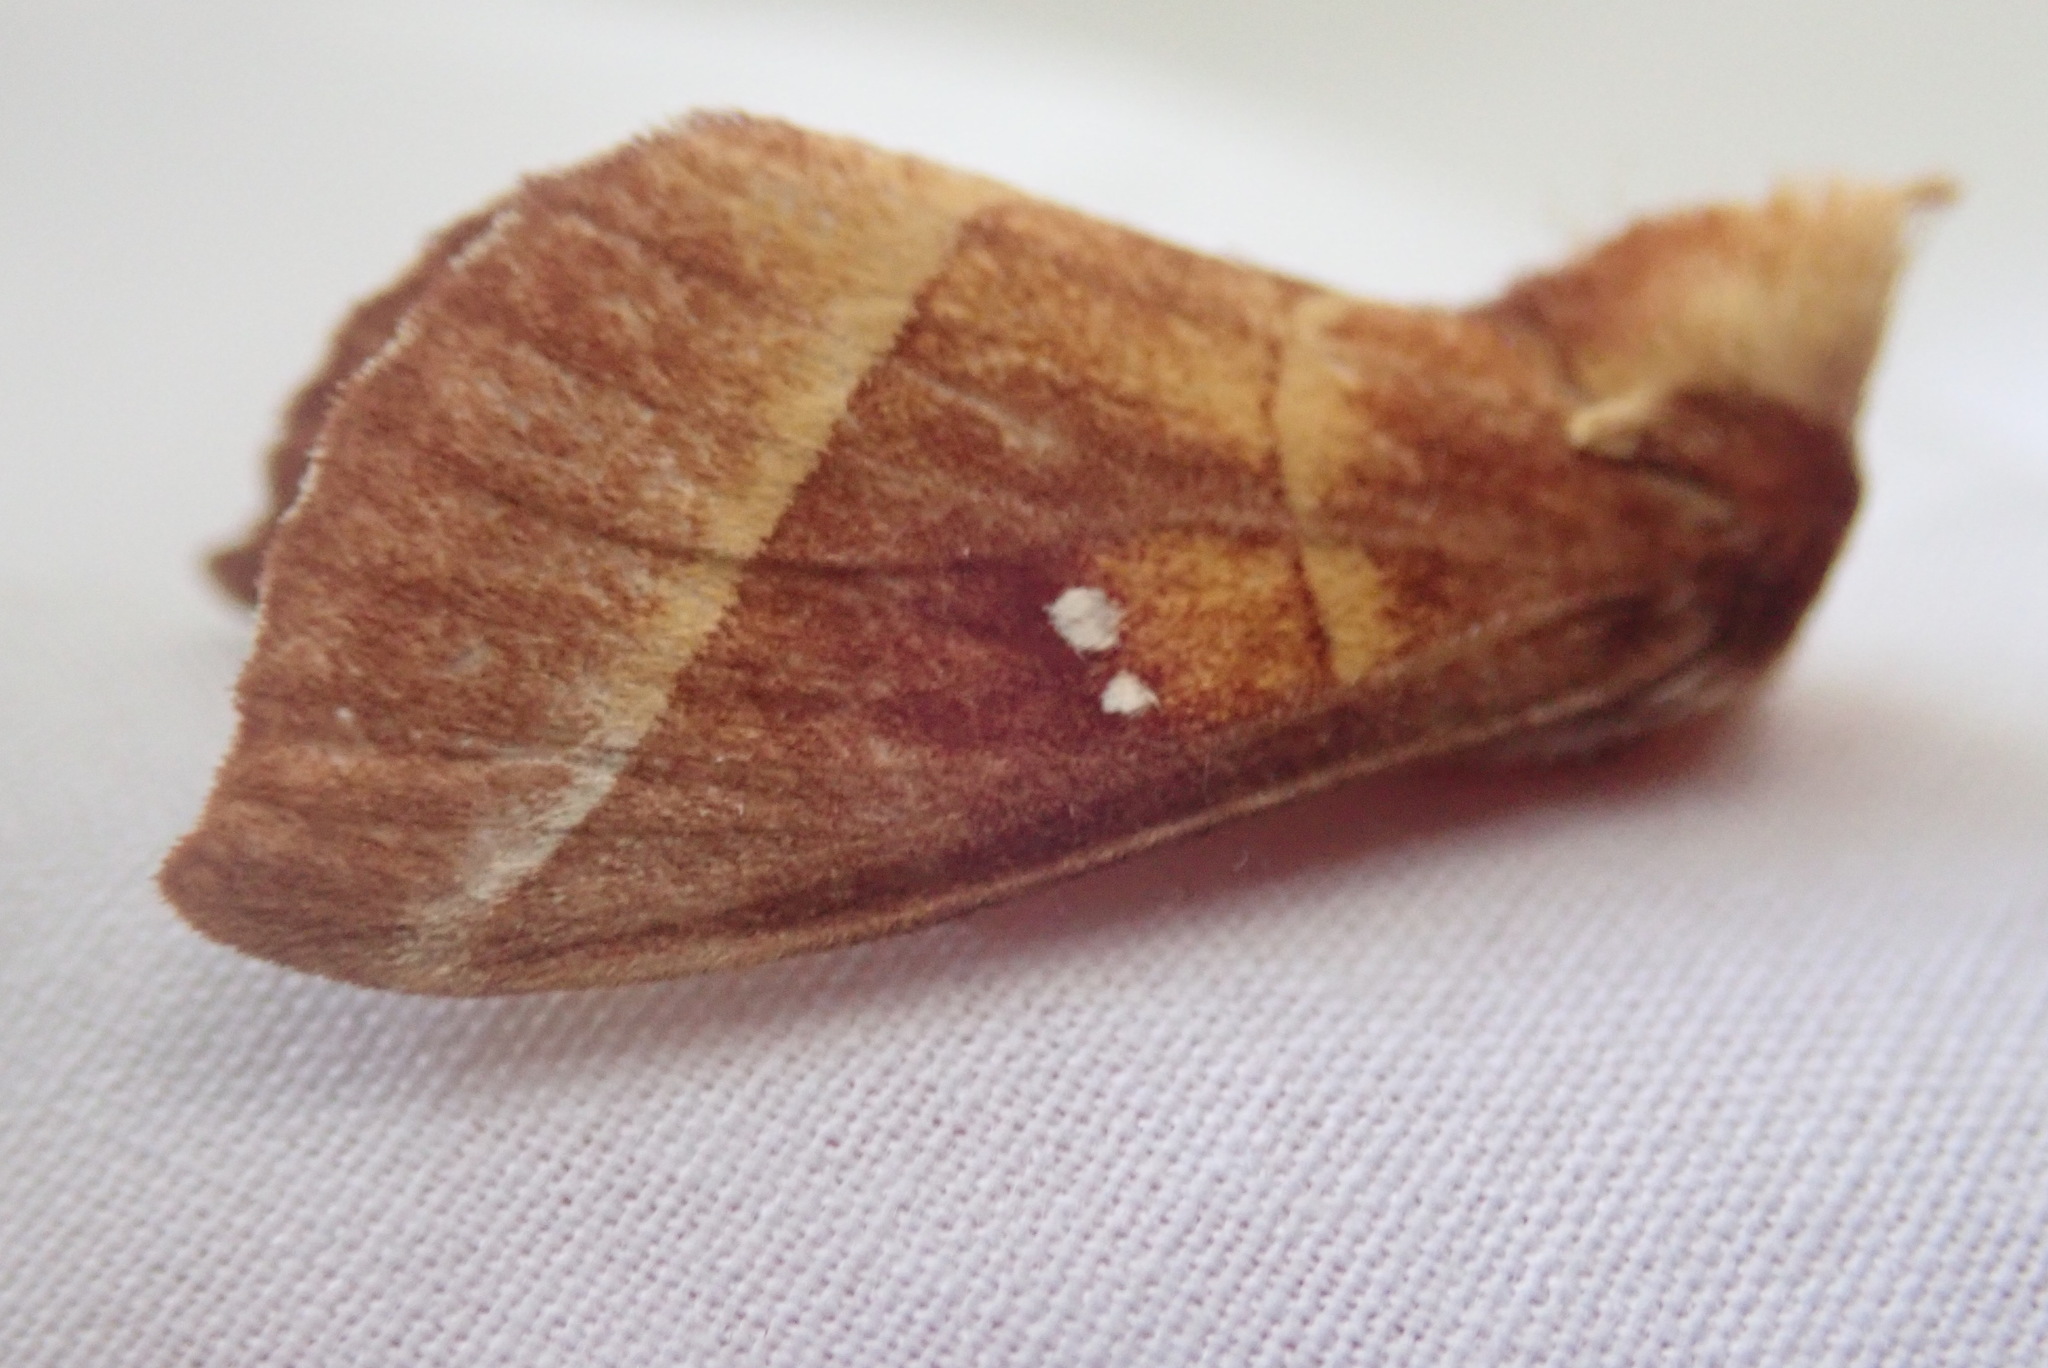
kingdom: Animalia
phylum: Arthropoda
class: Insecta
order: Lepidoptera
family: Notodontidae
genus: Nadata
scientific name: Nadata gibbosa
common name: White-dotted prominent
